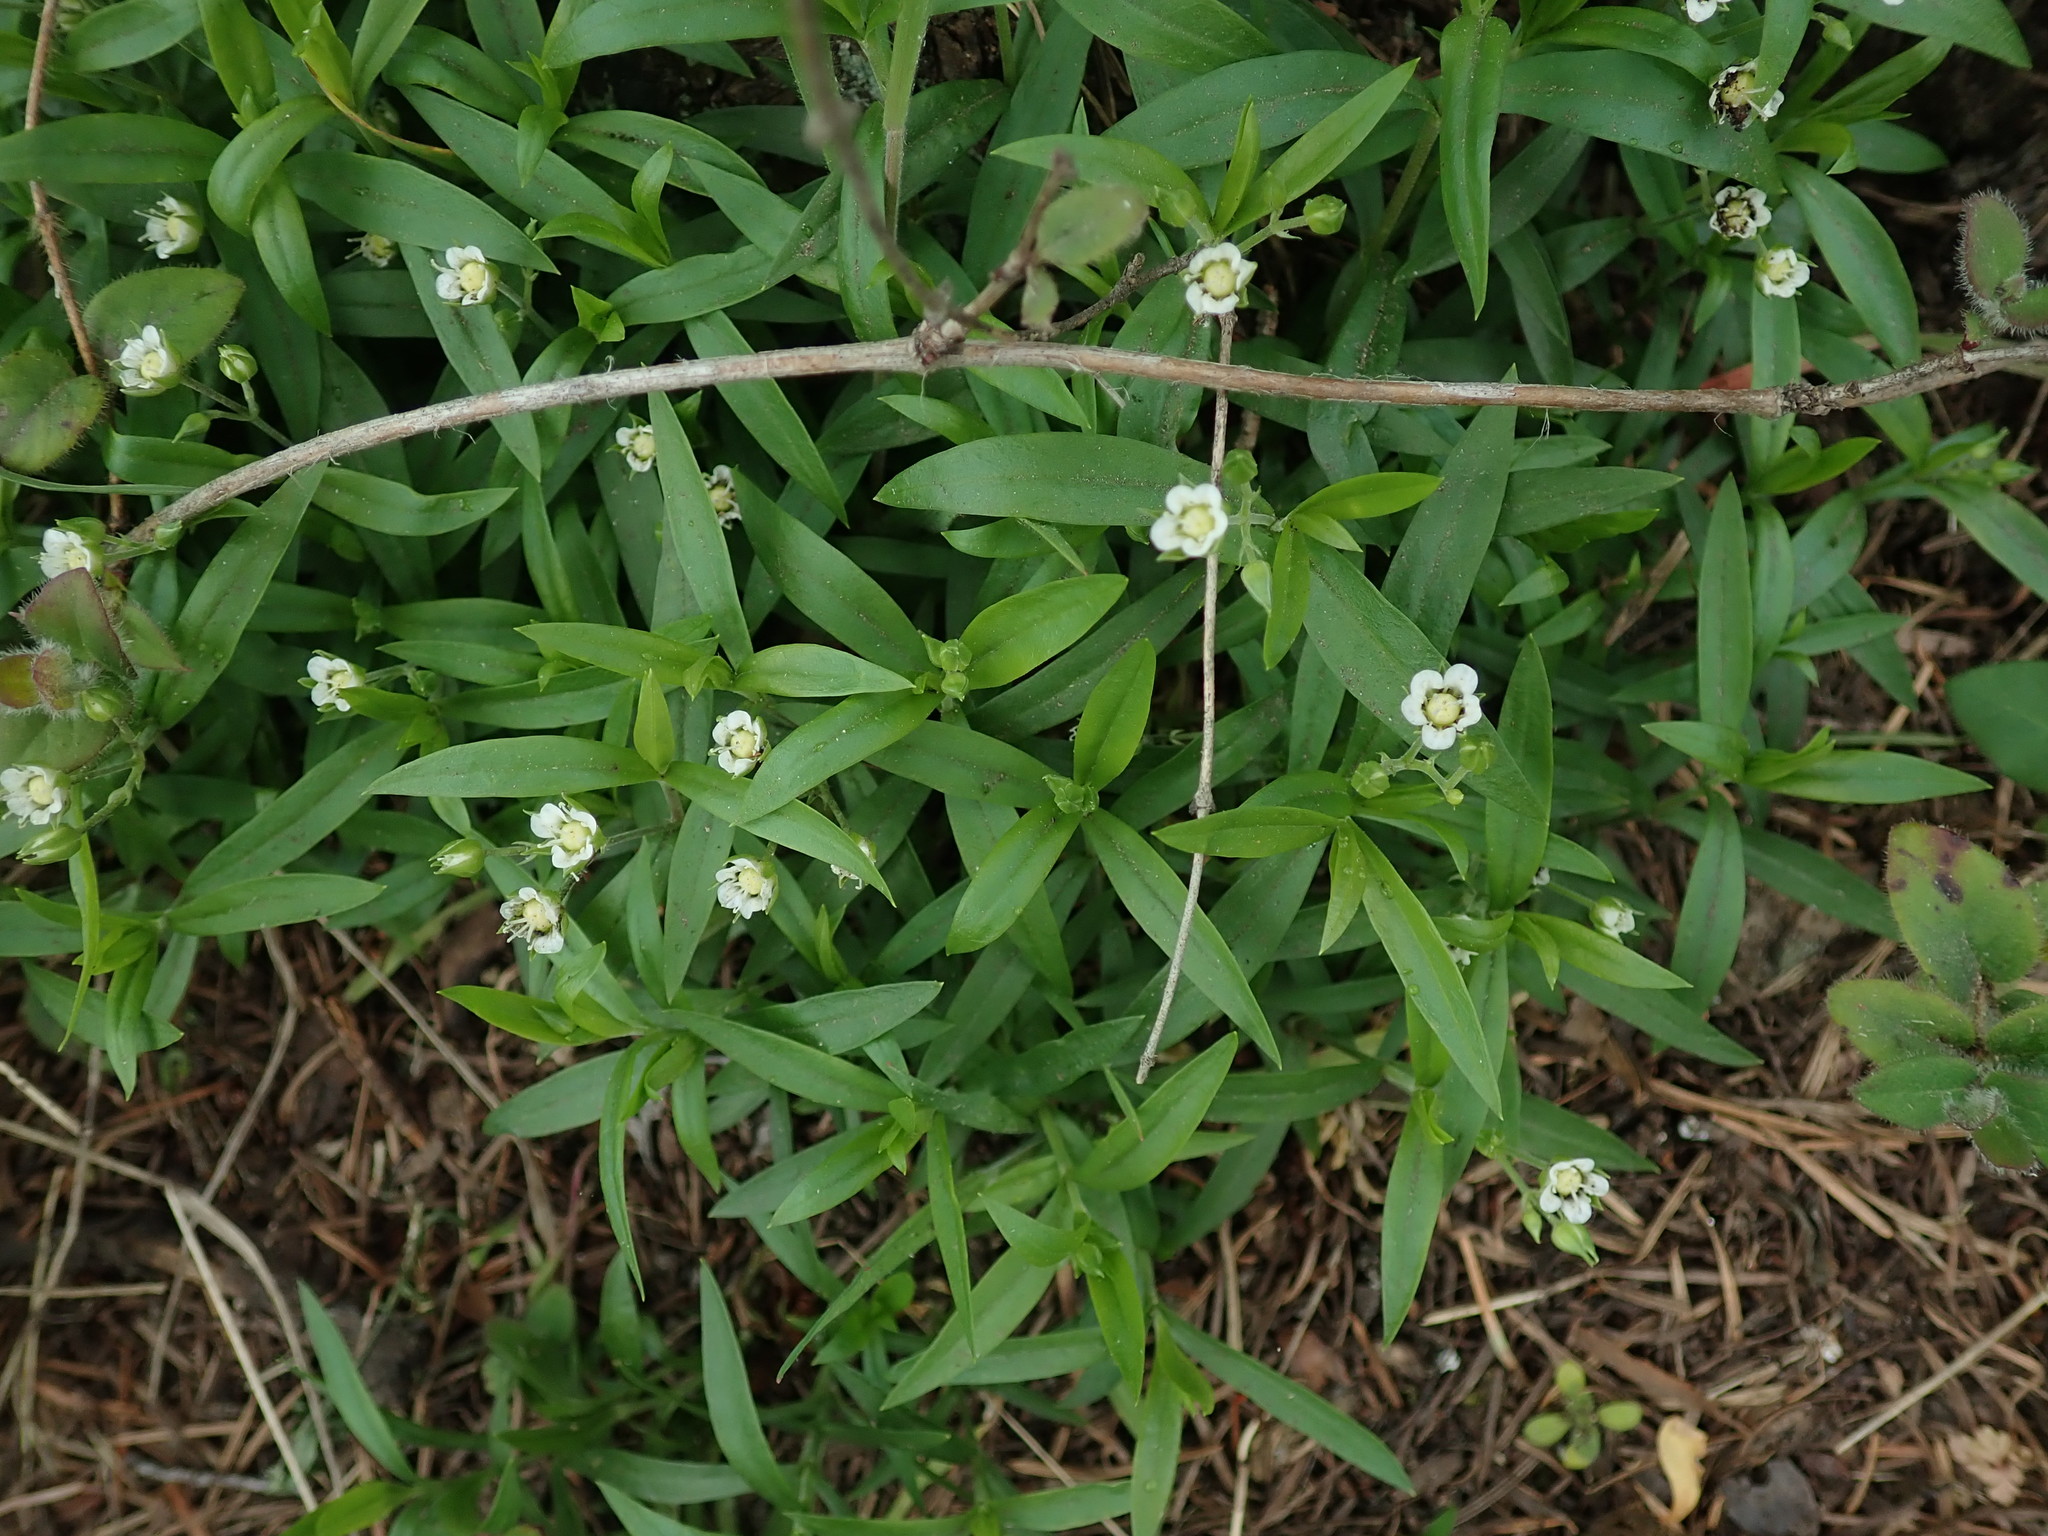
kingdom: Plantae
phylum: Tracheophyta
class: Magnoliopsida
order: Caryophyllales
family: Caryophyllaceae
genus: Moehringia
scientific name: Moehringia macrophylla
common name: Big-leaf sandwort
